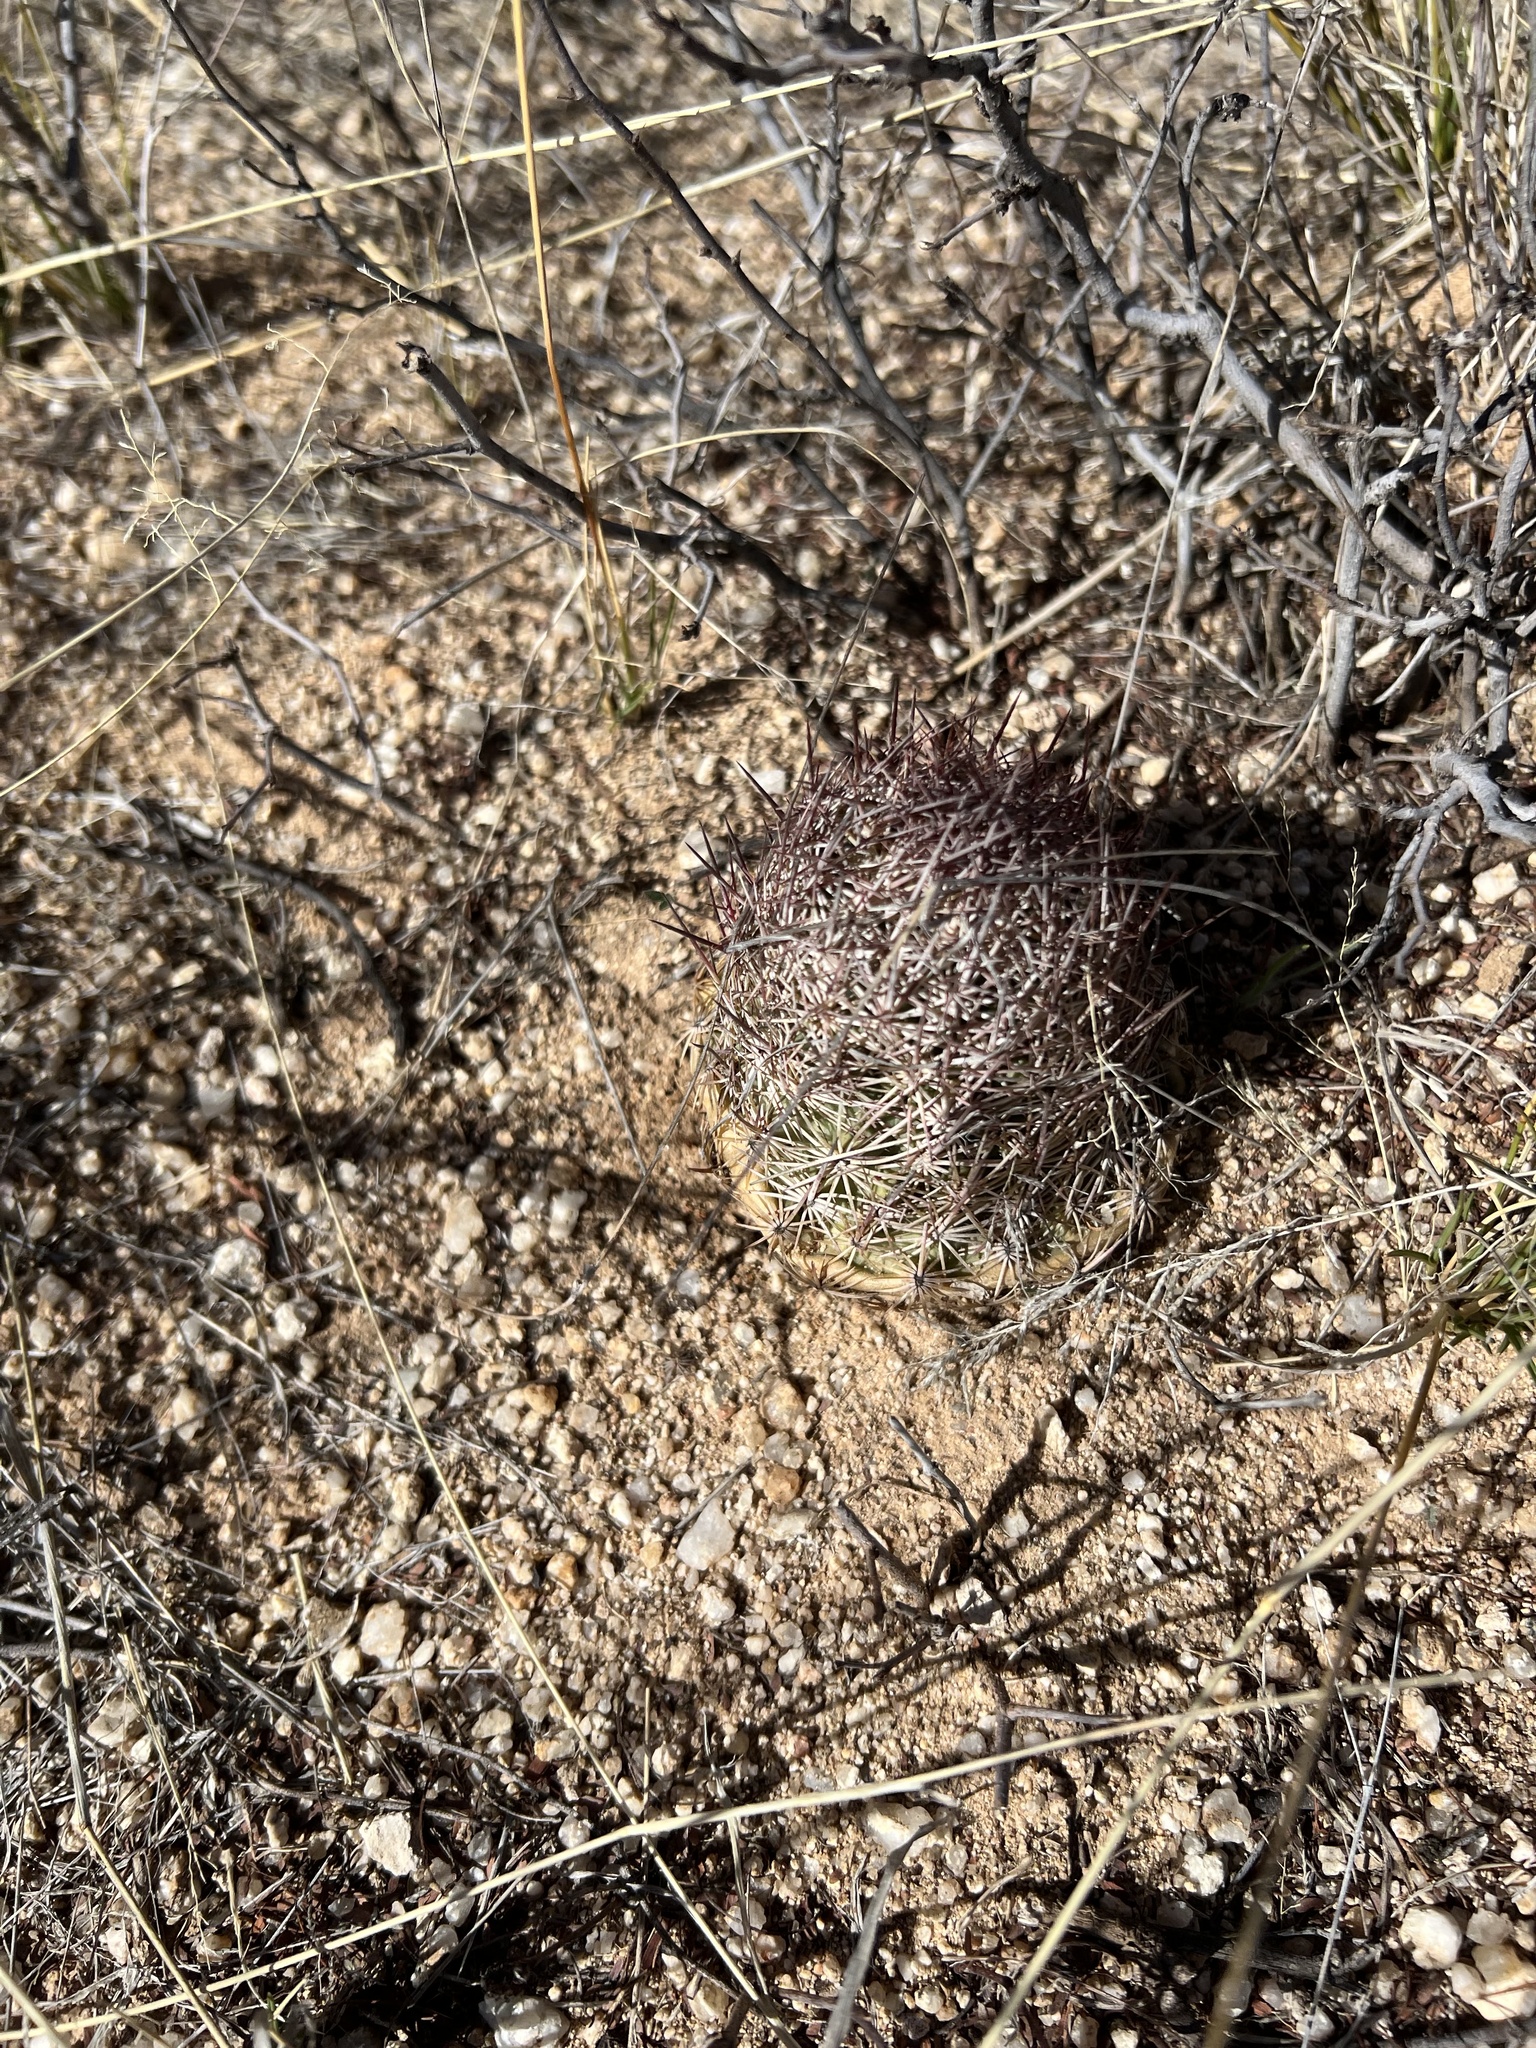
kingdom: Plantae
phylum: Tracheophyta
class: Magnoliopsida
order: Caryophyllales
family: Cactaceae
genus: Sclerocactus
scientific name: Sclerocactus johnsonii
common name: Eight-spine fishhook cactus
